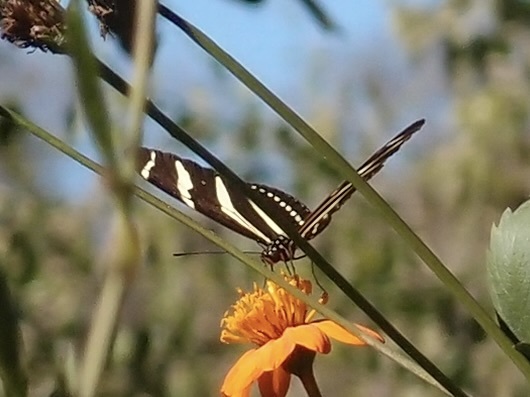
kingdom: Animalia
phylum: Arthropoda
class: Insecta
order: Lepidoptera
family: Nymphalidae
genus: Heliconius
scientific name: Heliconius charithonia
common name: Zebra long wing
